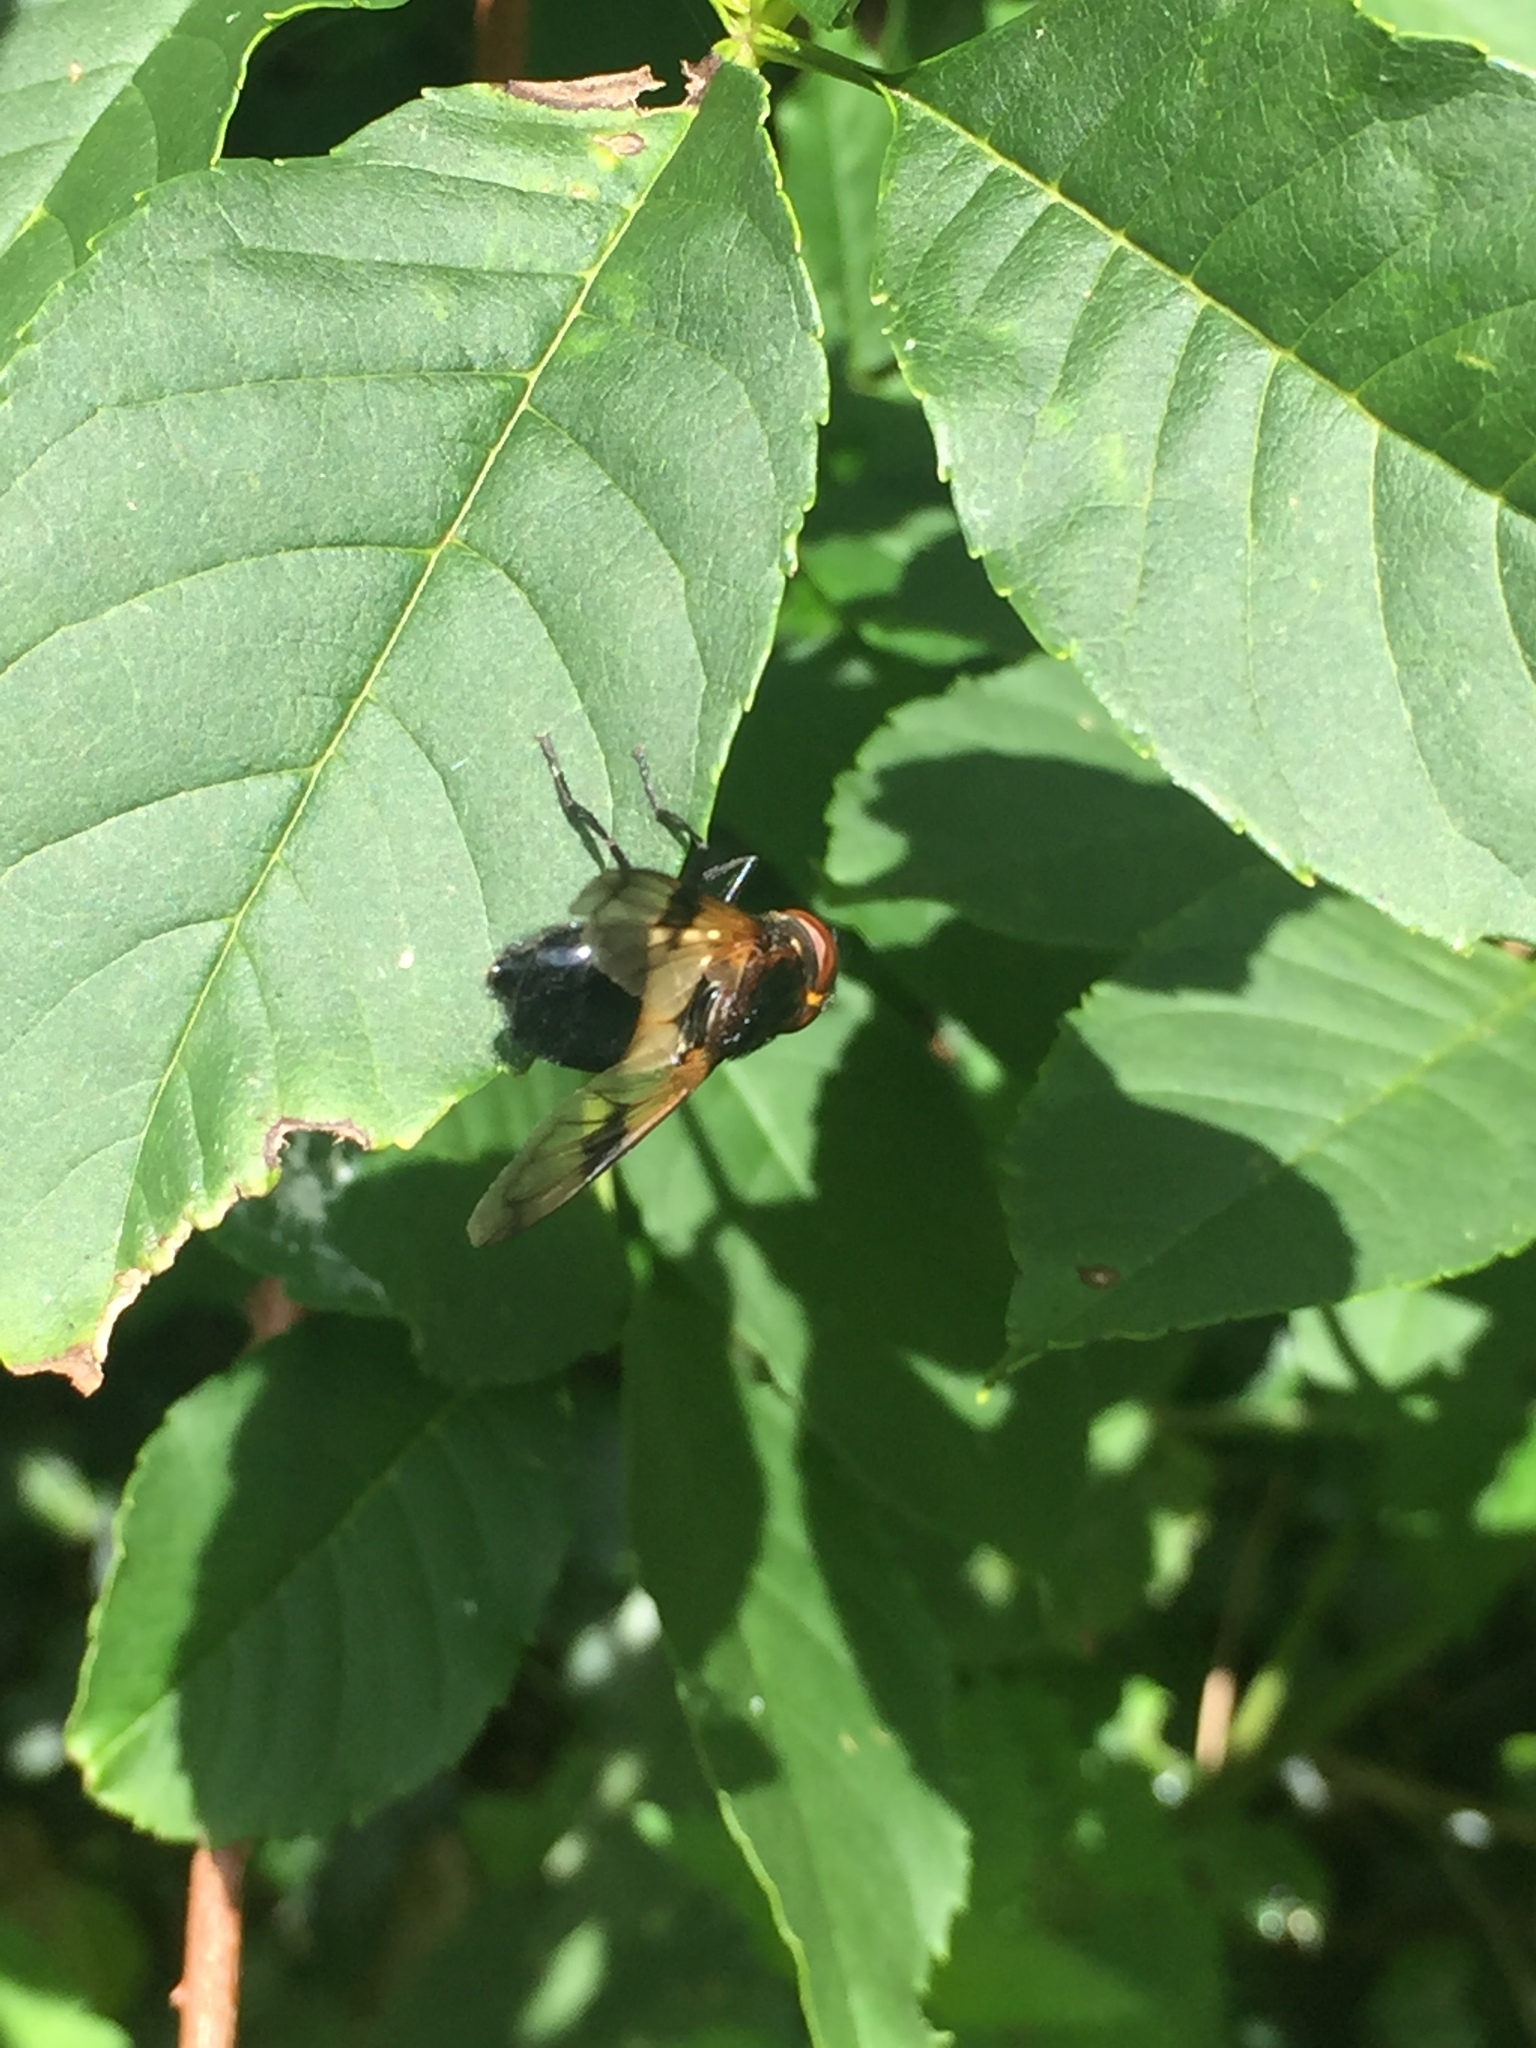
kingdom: Animalia
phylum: Arthropoda
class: Insecta
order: Diptera
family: Syrphidae
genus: Volucella
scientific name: Volucella pellucens
